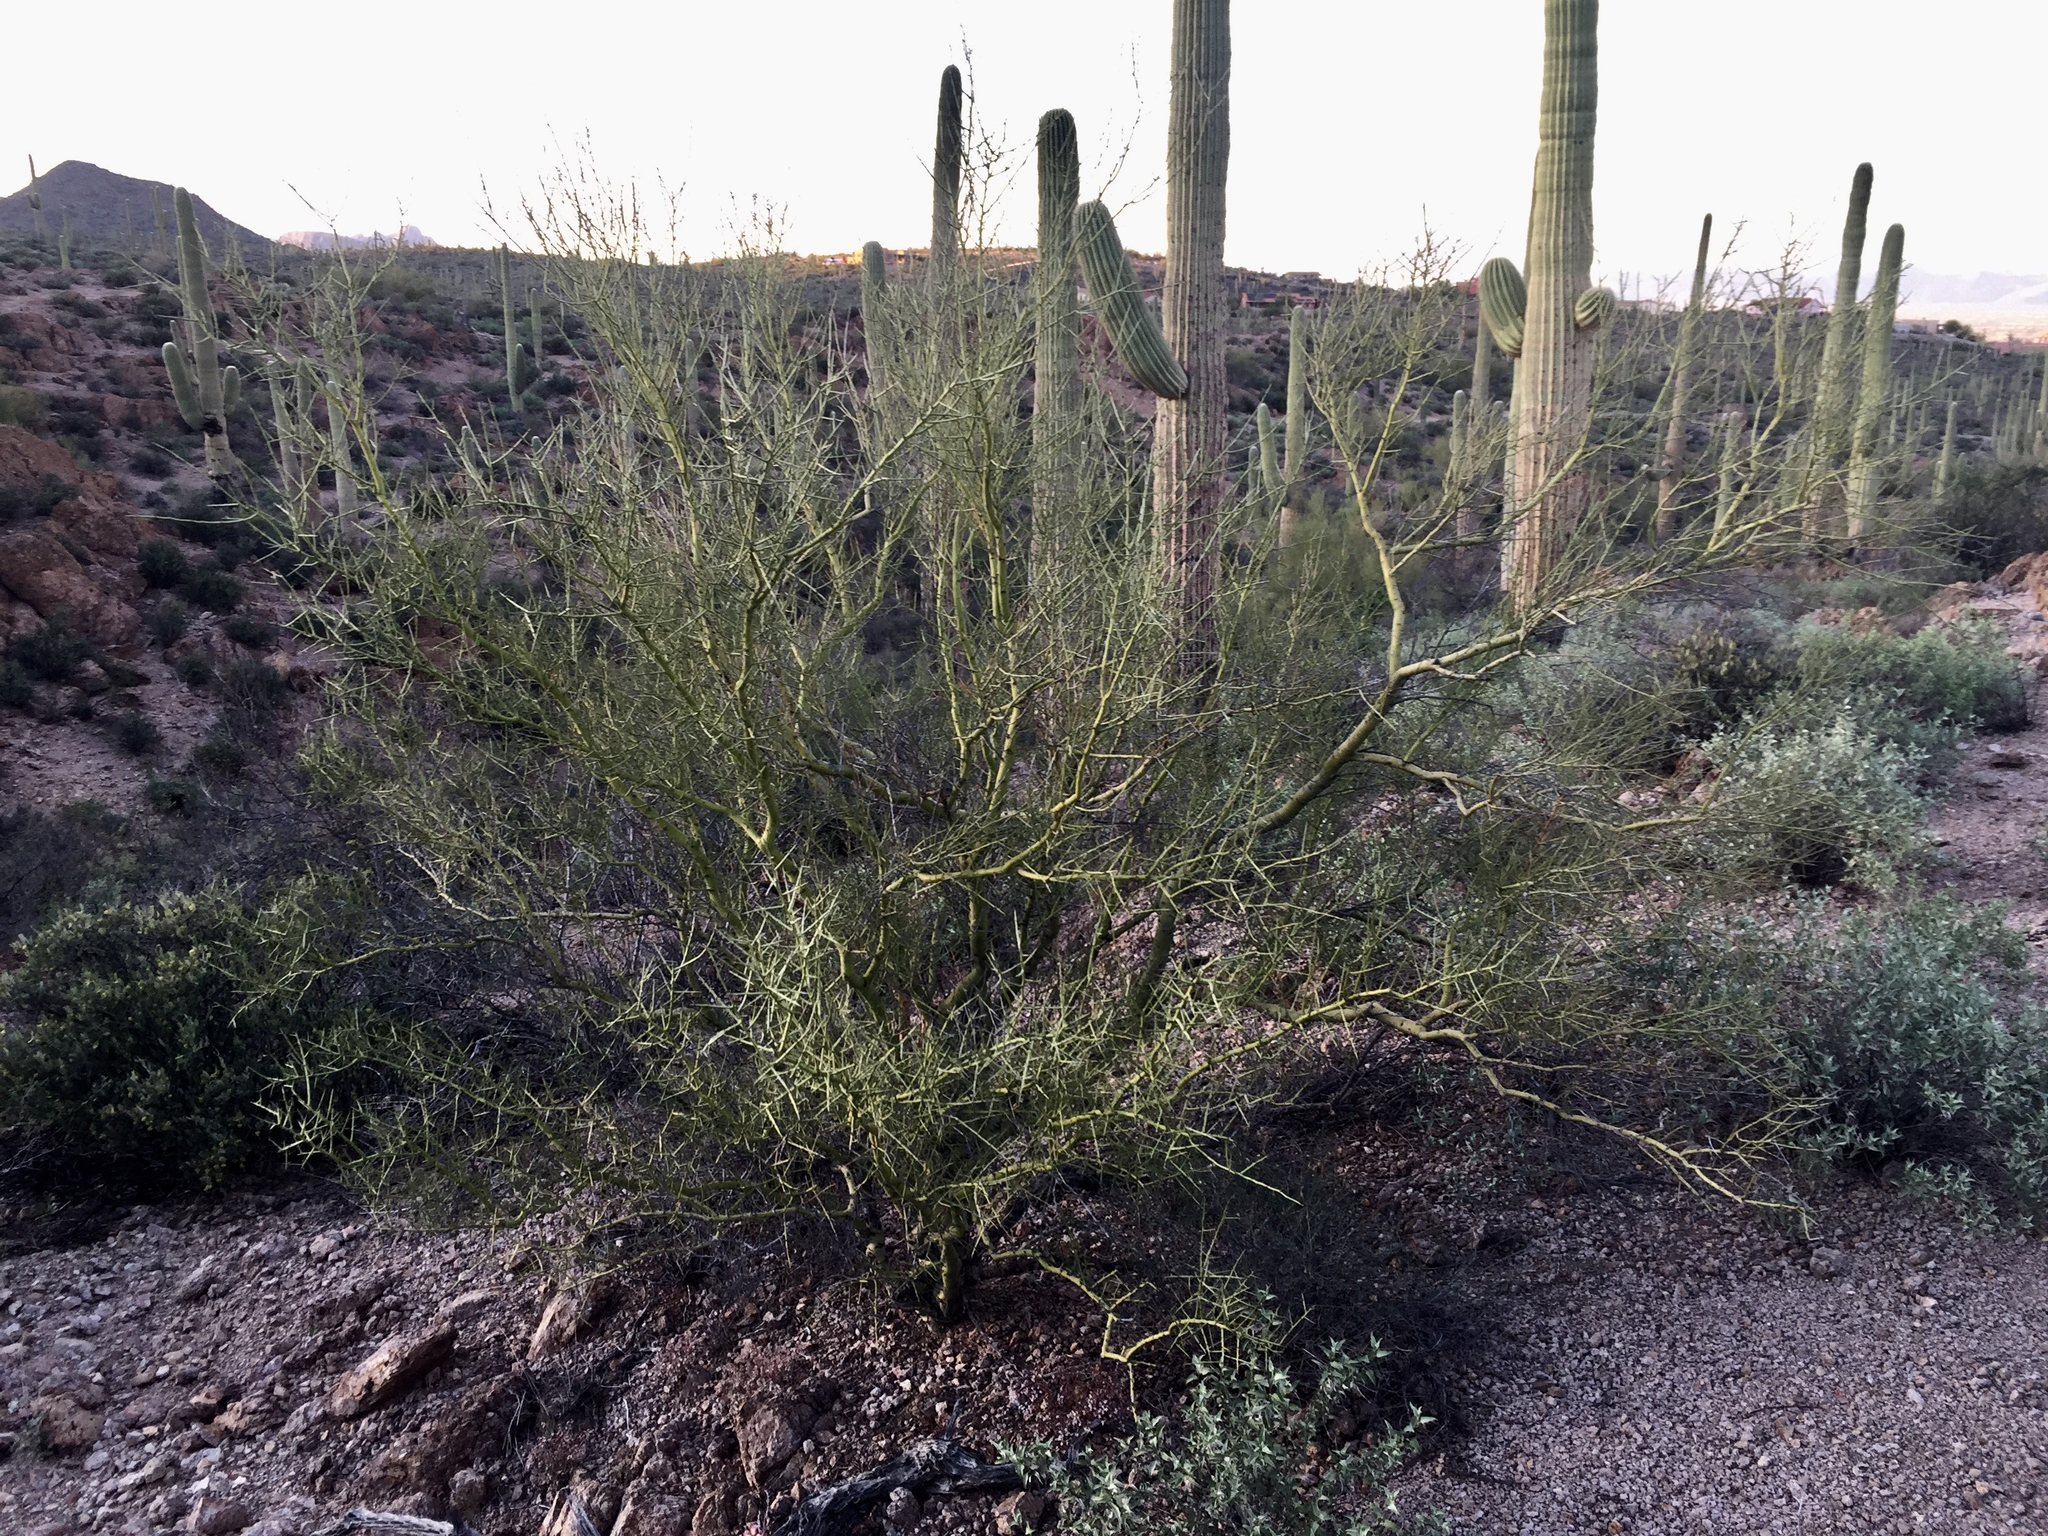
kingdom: Plantae
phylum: Tracheophyta
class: Magnoliopsida
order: Fabales
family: Fabaceae
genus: Parkinsonia
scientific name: Parkinsonia microphylla
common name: Yellow paloverde
